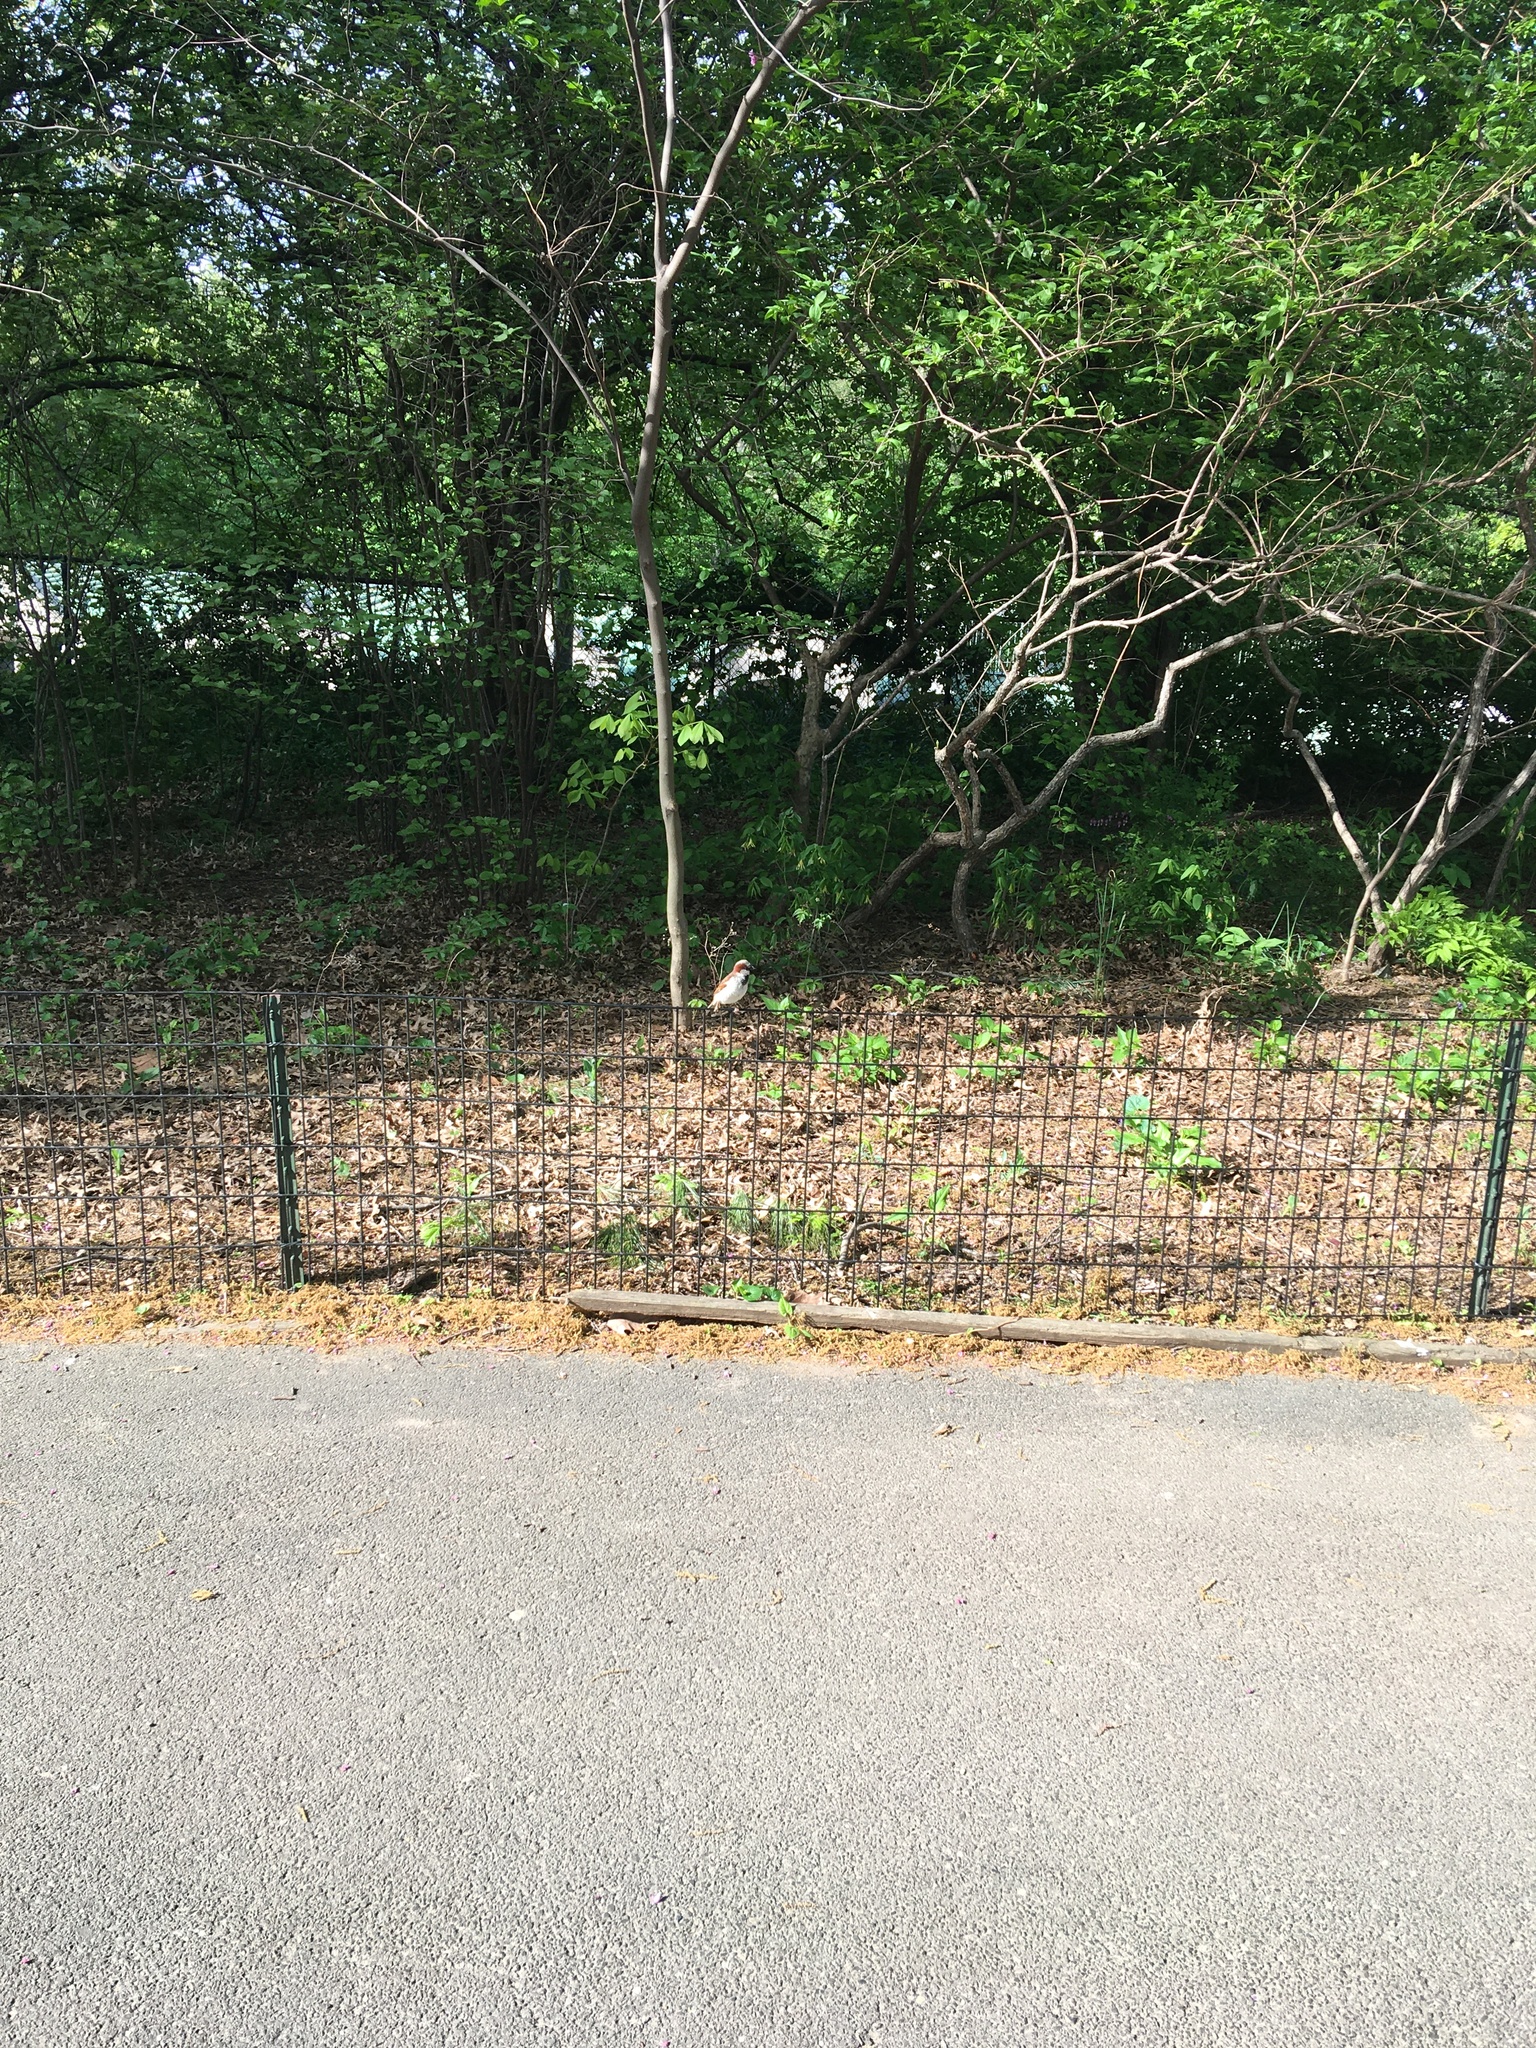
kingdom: Animalia
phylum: Chordata
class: Aves
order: Passeriformes
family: Passeridae
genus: Passer
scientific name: Passer domesticus
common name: House sparrow
